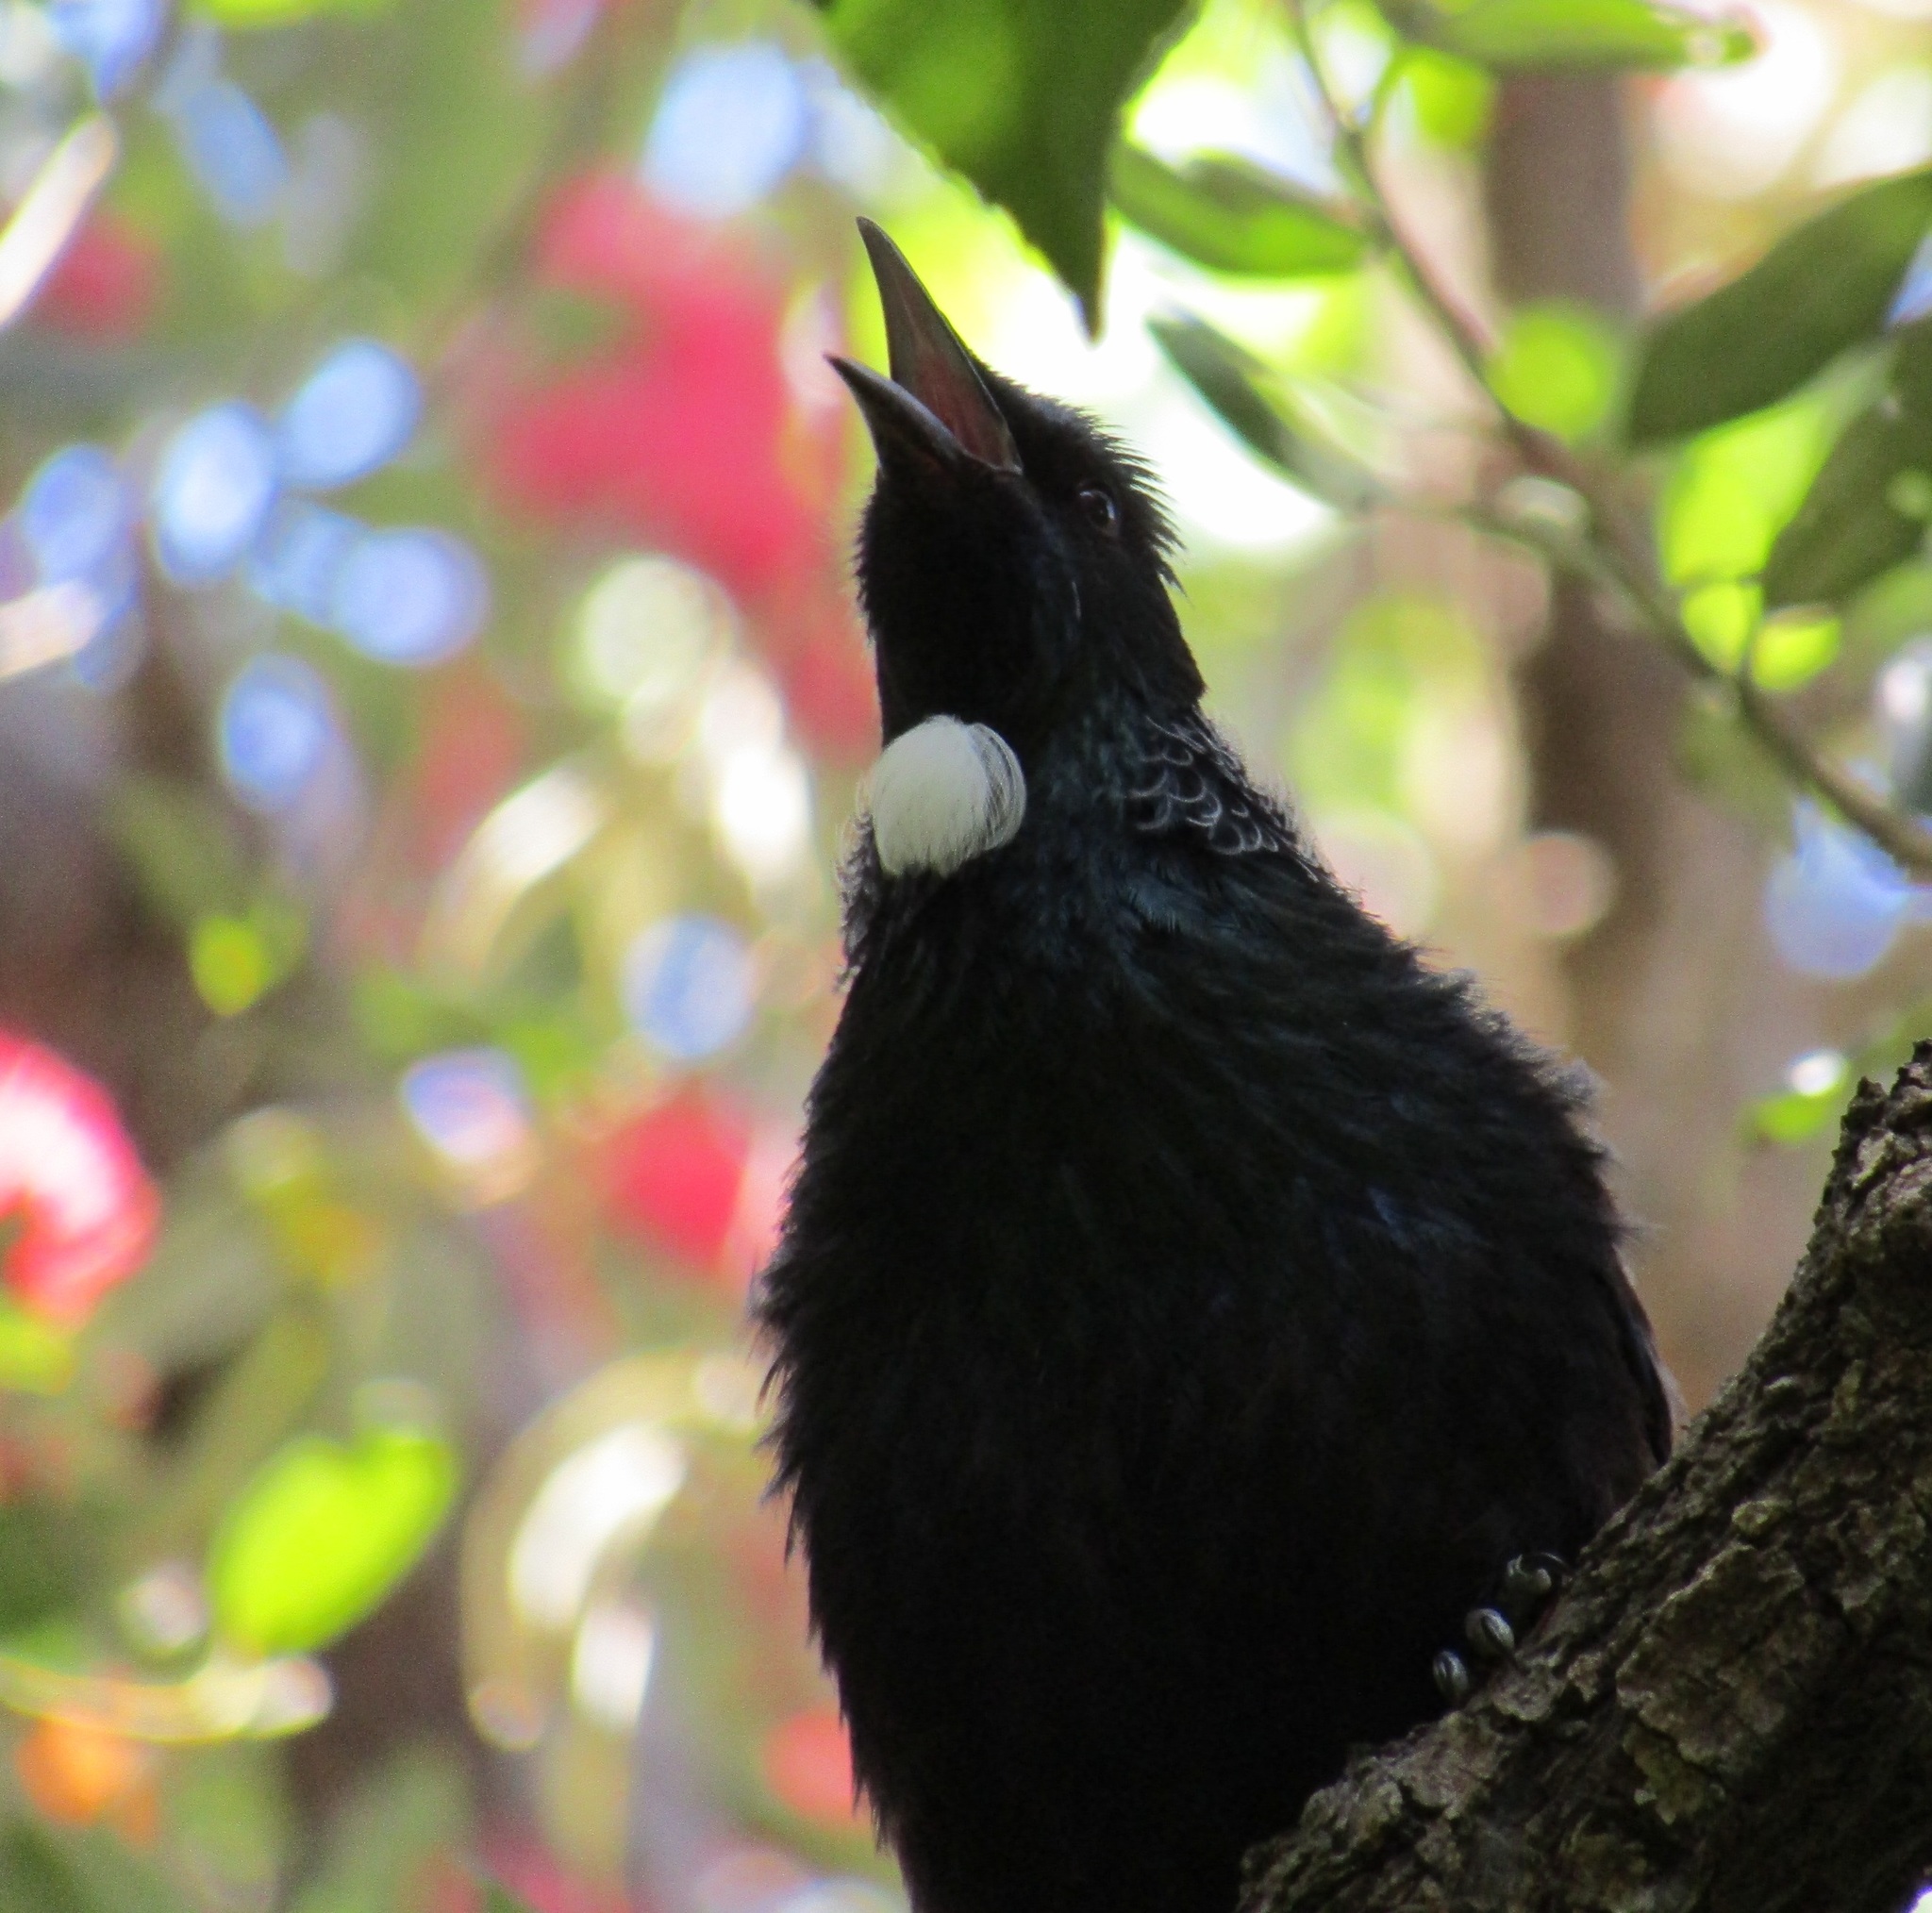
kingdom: Animalia
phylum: Chordata
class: Aves
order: Passeriformes
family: Meliphagidae
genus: Prosthemadera
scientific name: Prosthemadera novaeseelandiae
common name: Tui
